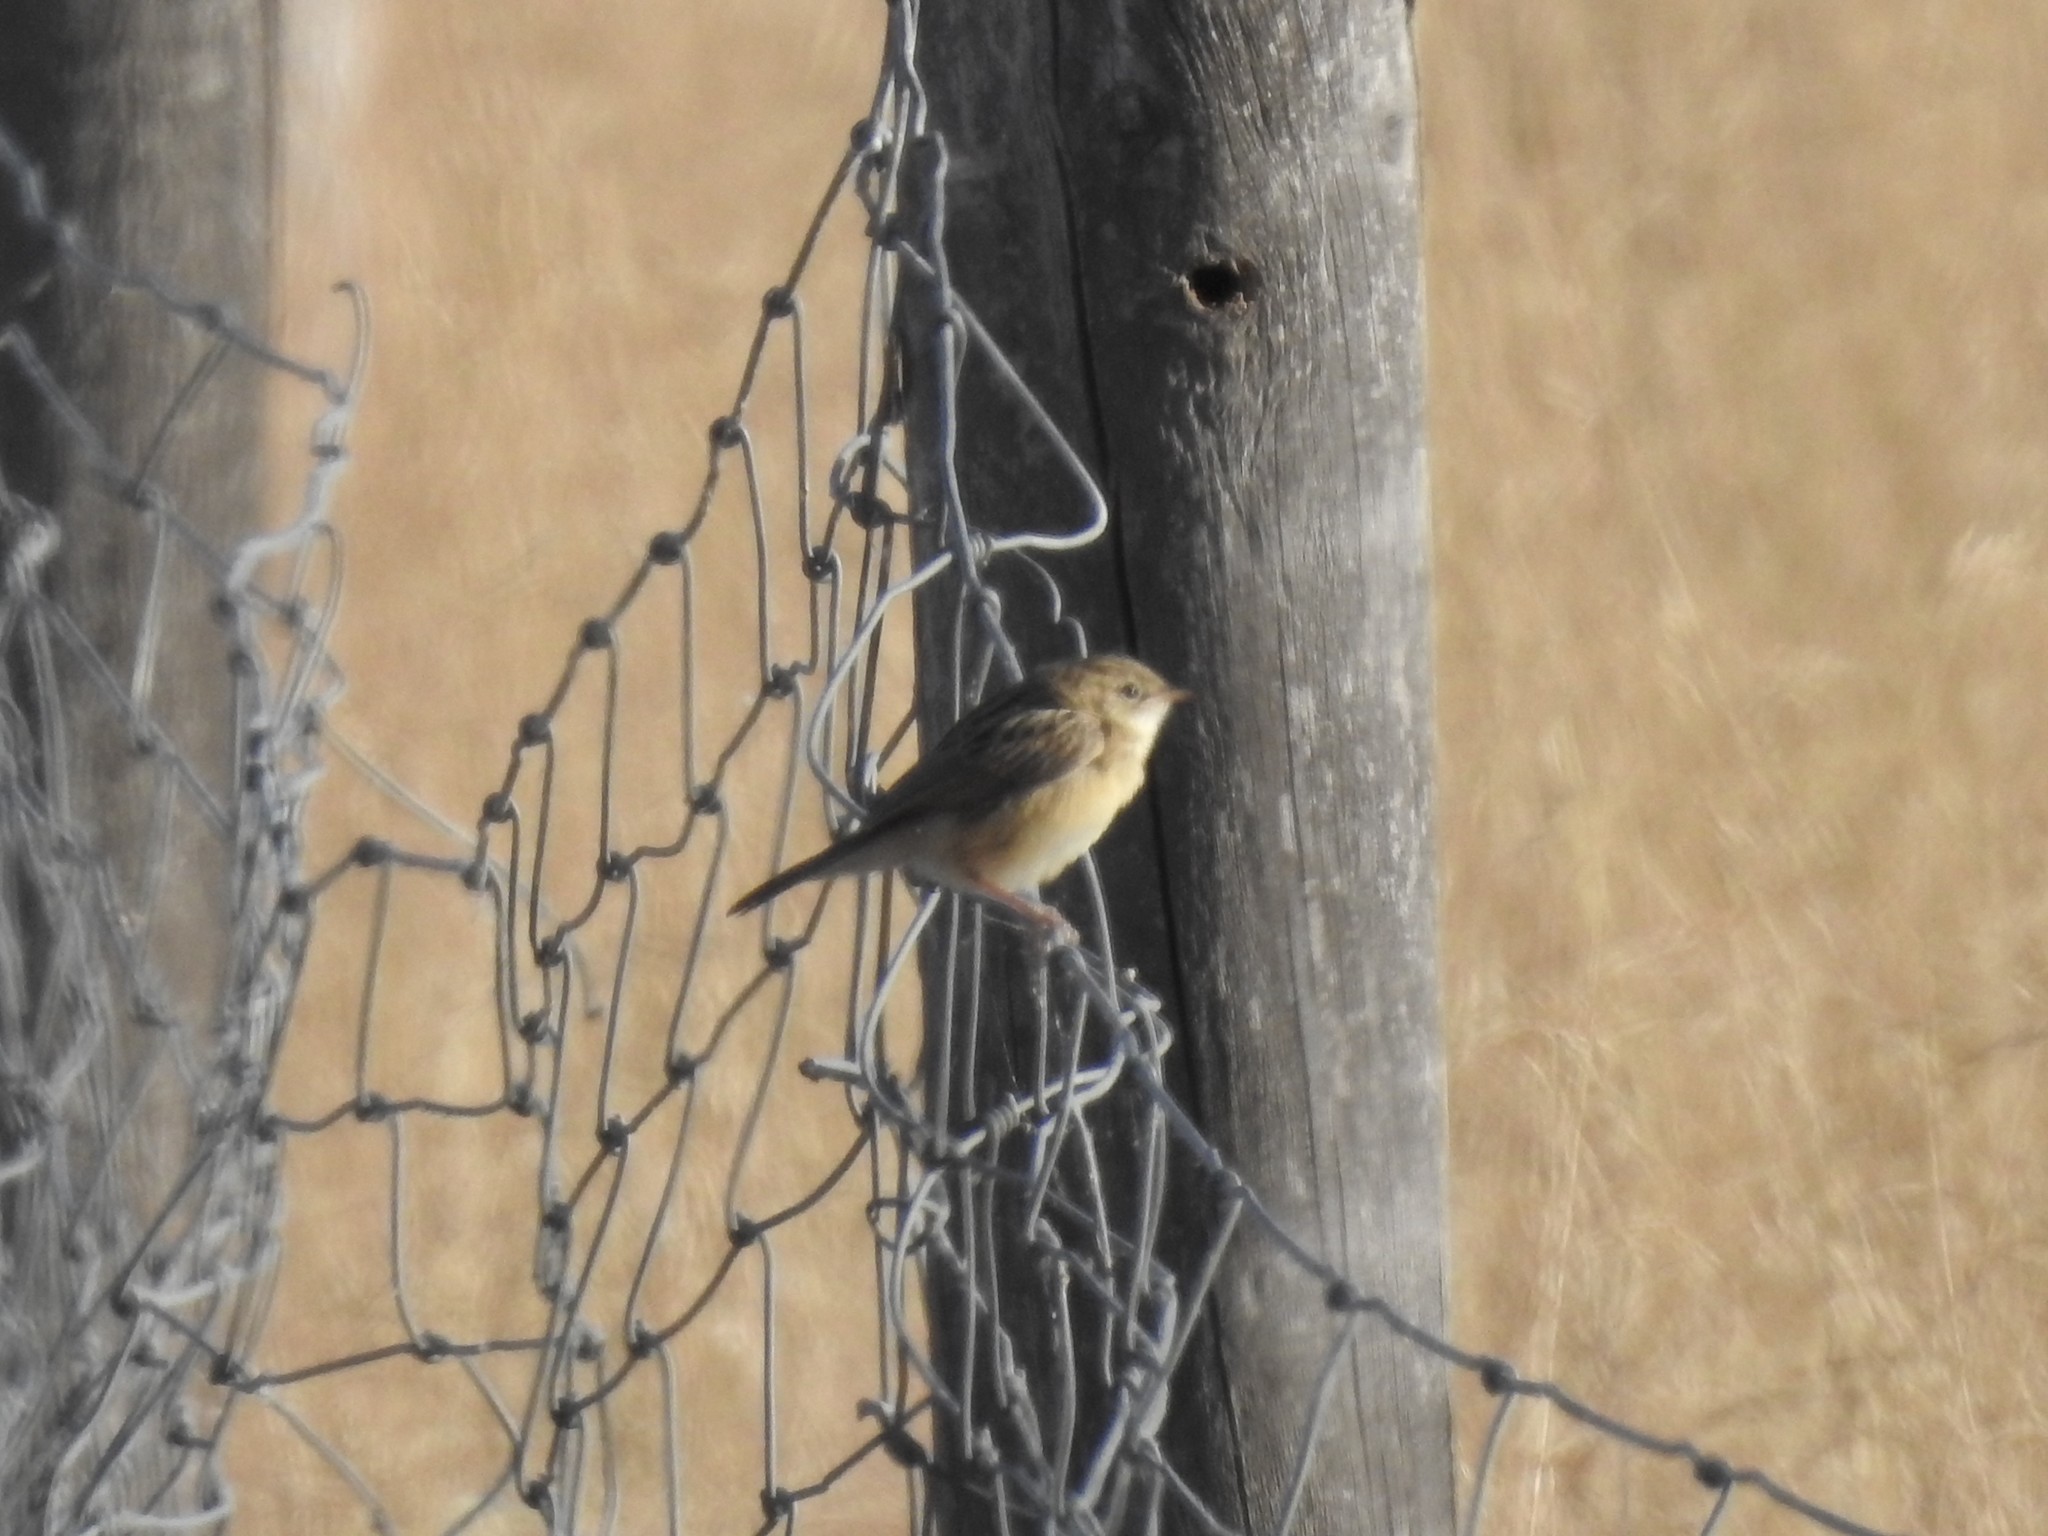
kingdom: Animalia
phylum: Chordata
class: Aves
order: Passeriformes
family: Cisticolidae
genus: Cisticola
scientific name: Cisticola juncidis
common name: Zitting cisticola
